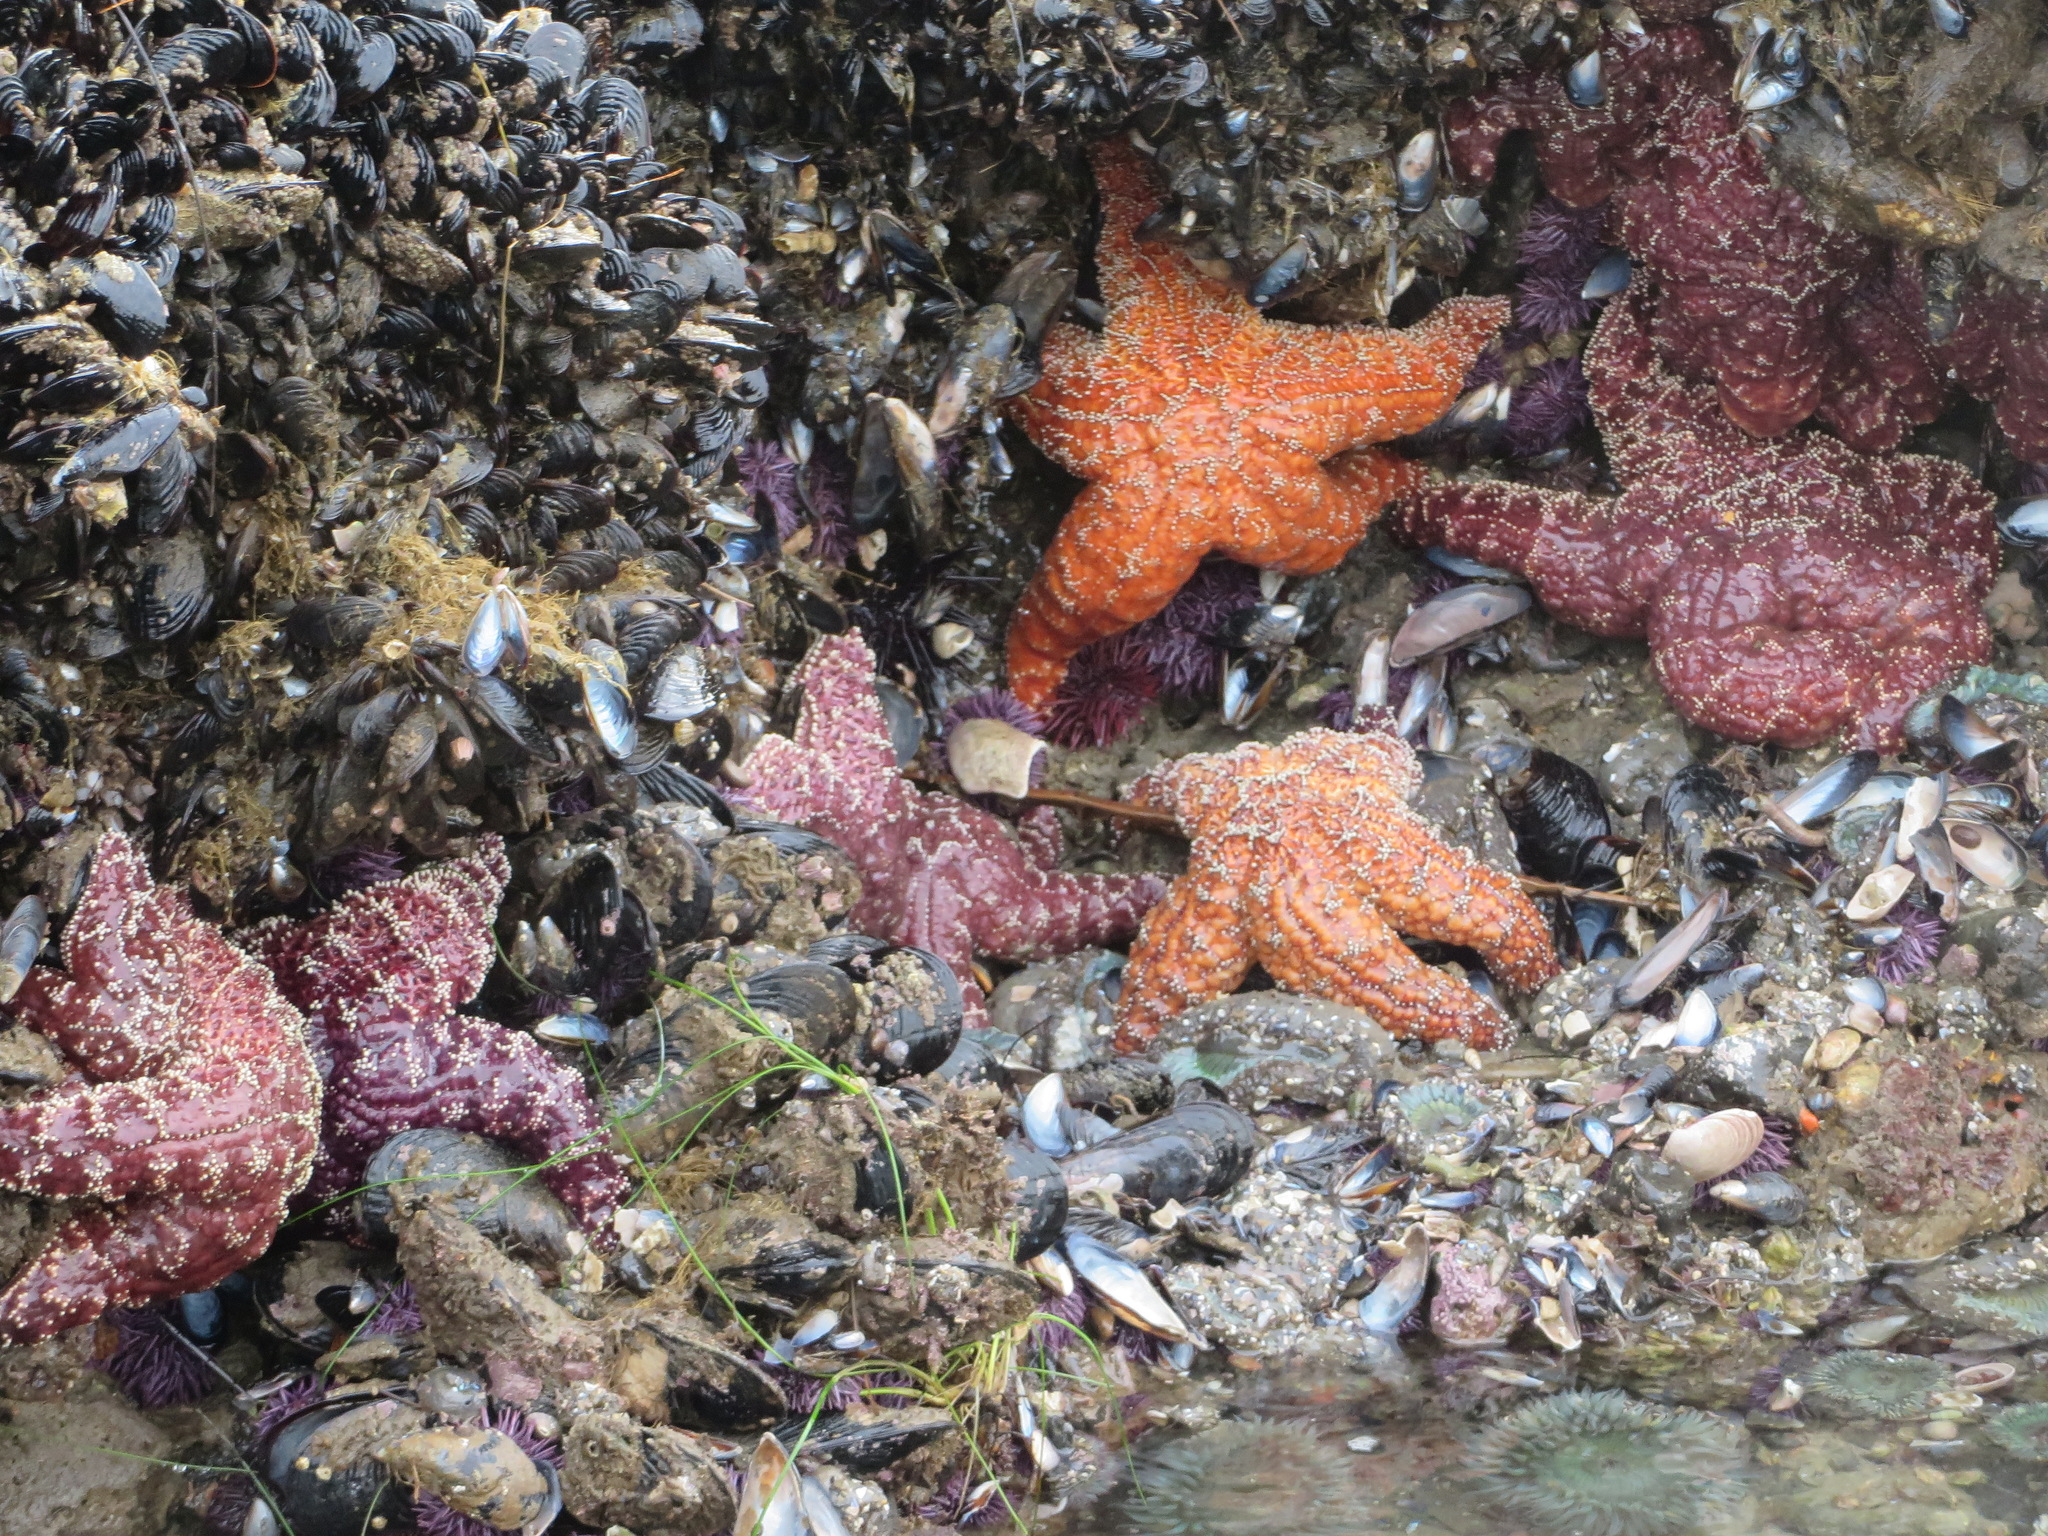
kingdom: Animalia
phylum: Echinodermata
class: Asteroidea
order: Forcipulatida
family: Asteriidae
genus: Pisaster
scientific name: Pisaster ochraceus
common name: Ochre stars
